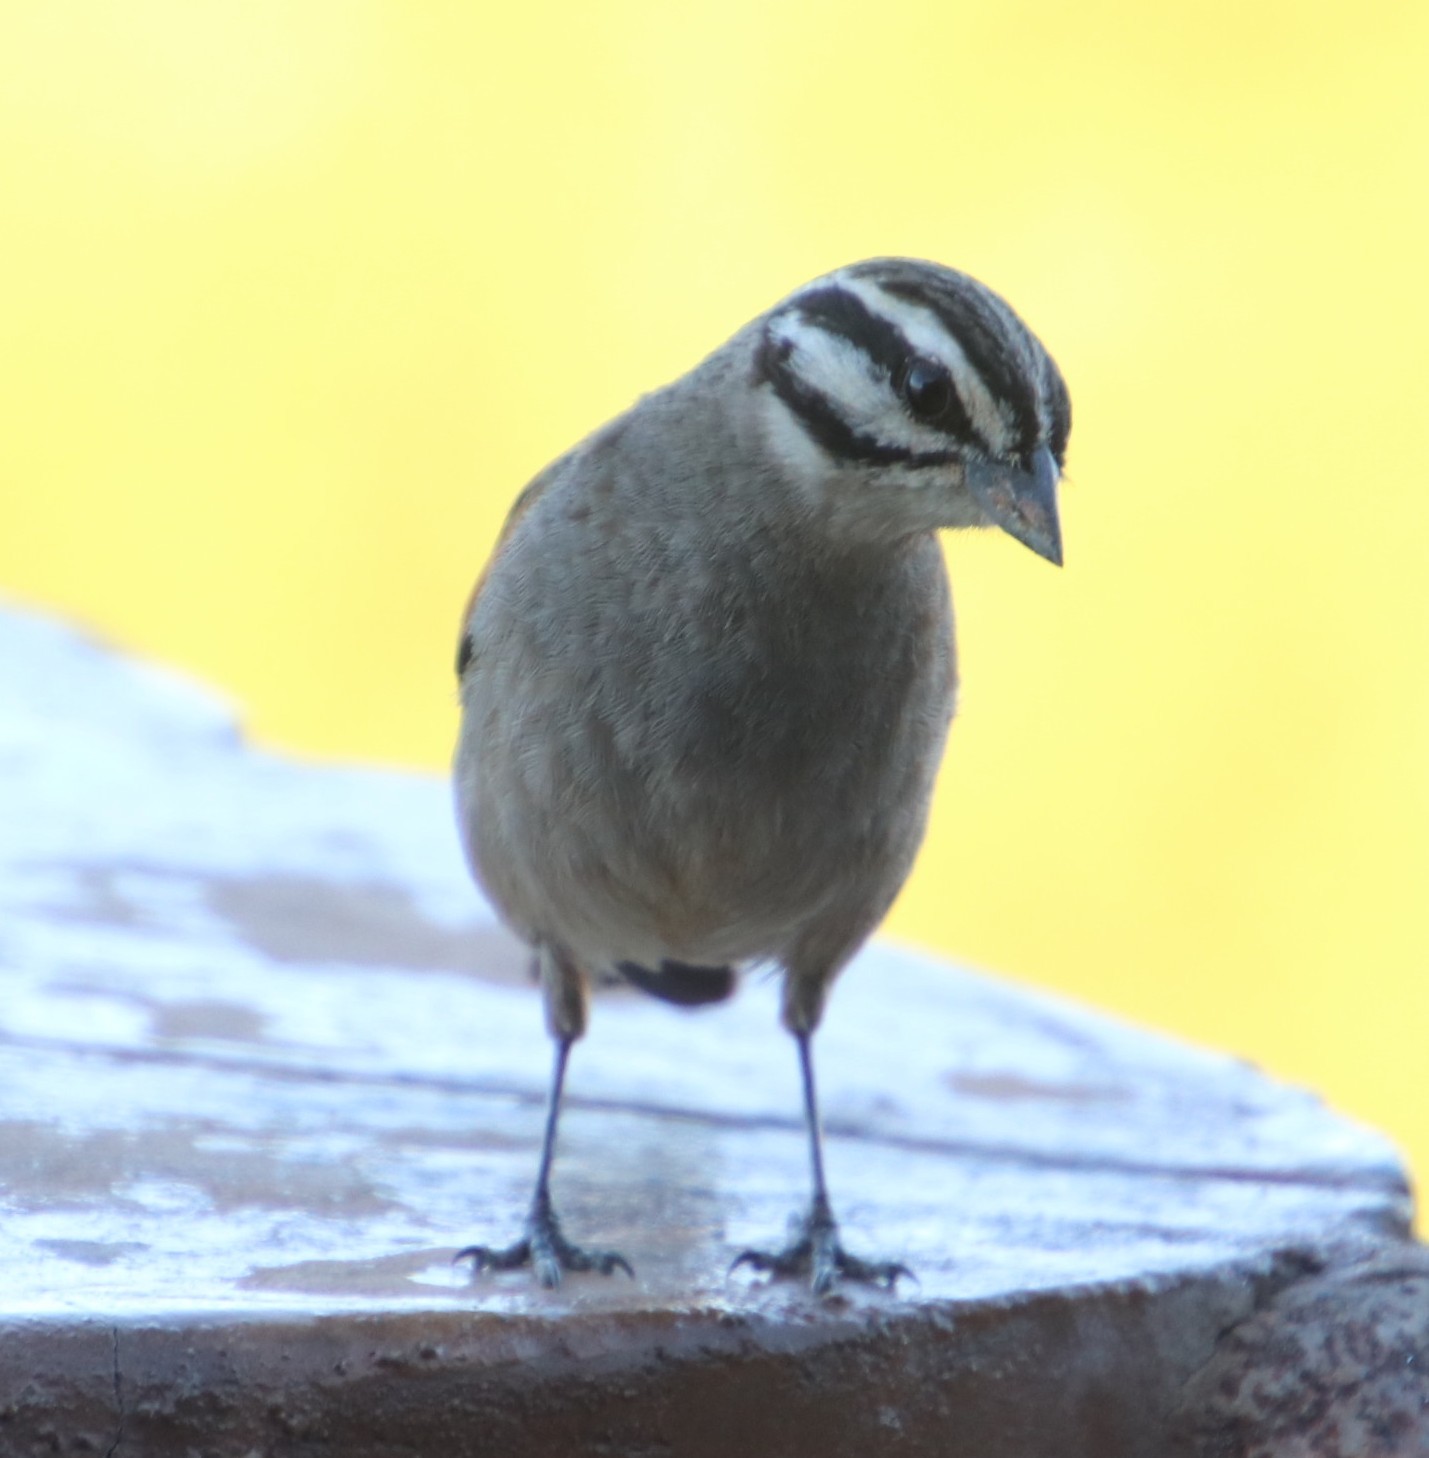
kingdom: Animalia
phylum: Chordata
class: Aves
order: Passeriformes
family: Emberizidae
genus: Emberiza
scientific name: Emberiza capensis
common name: Cape bunting
